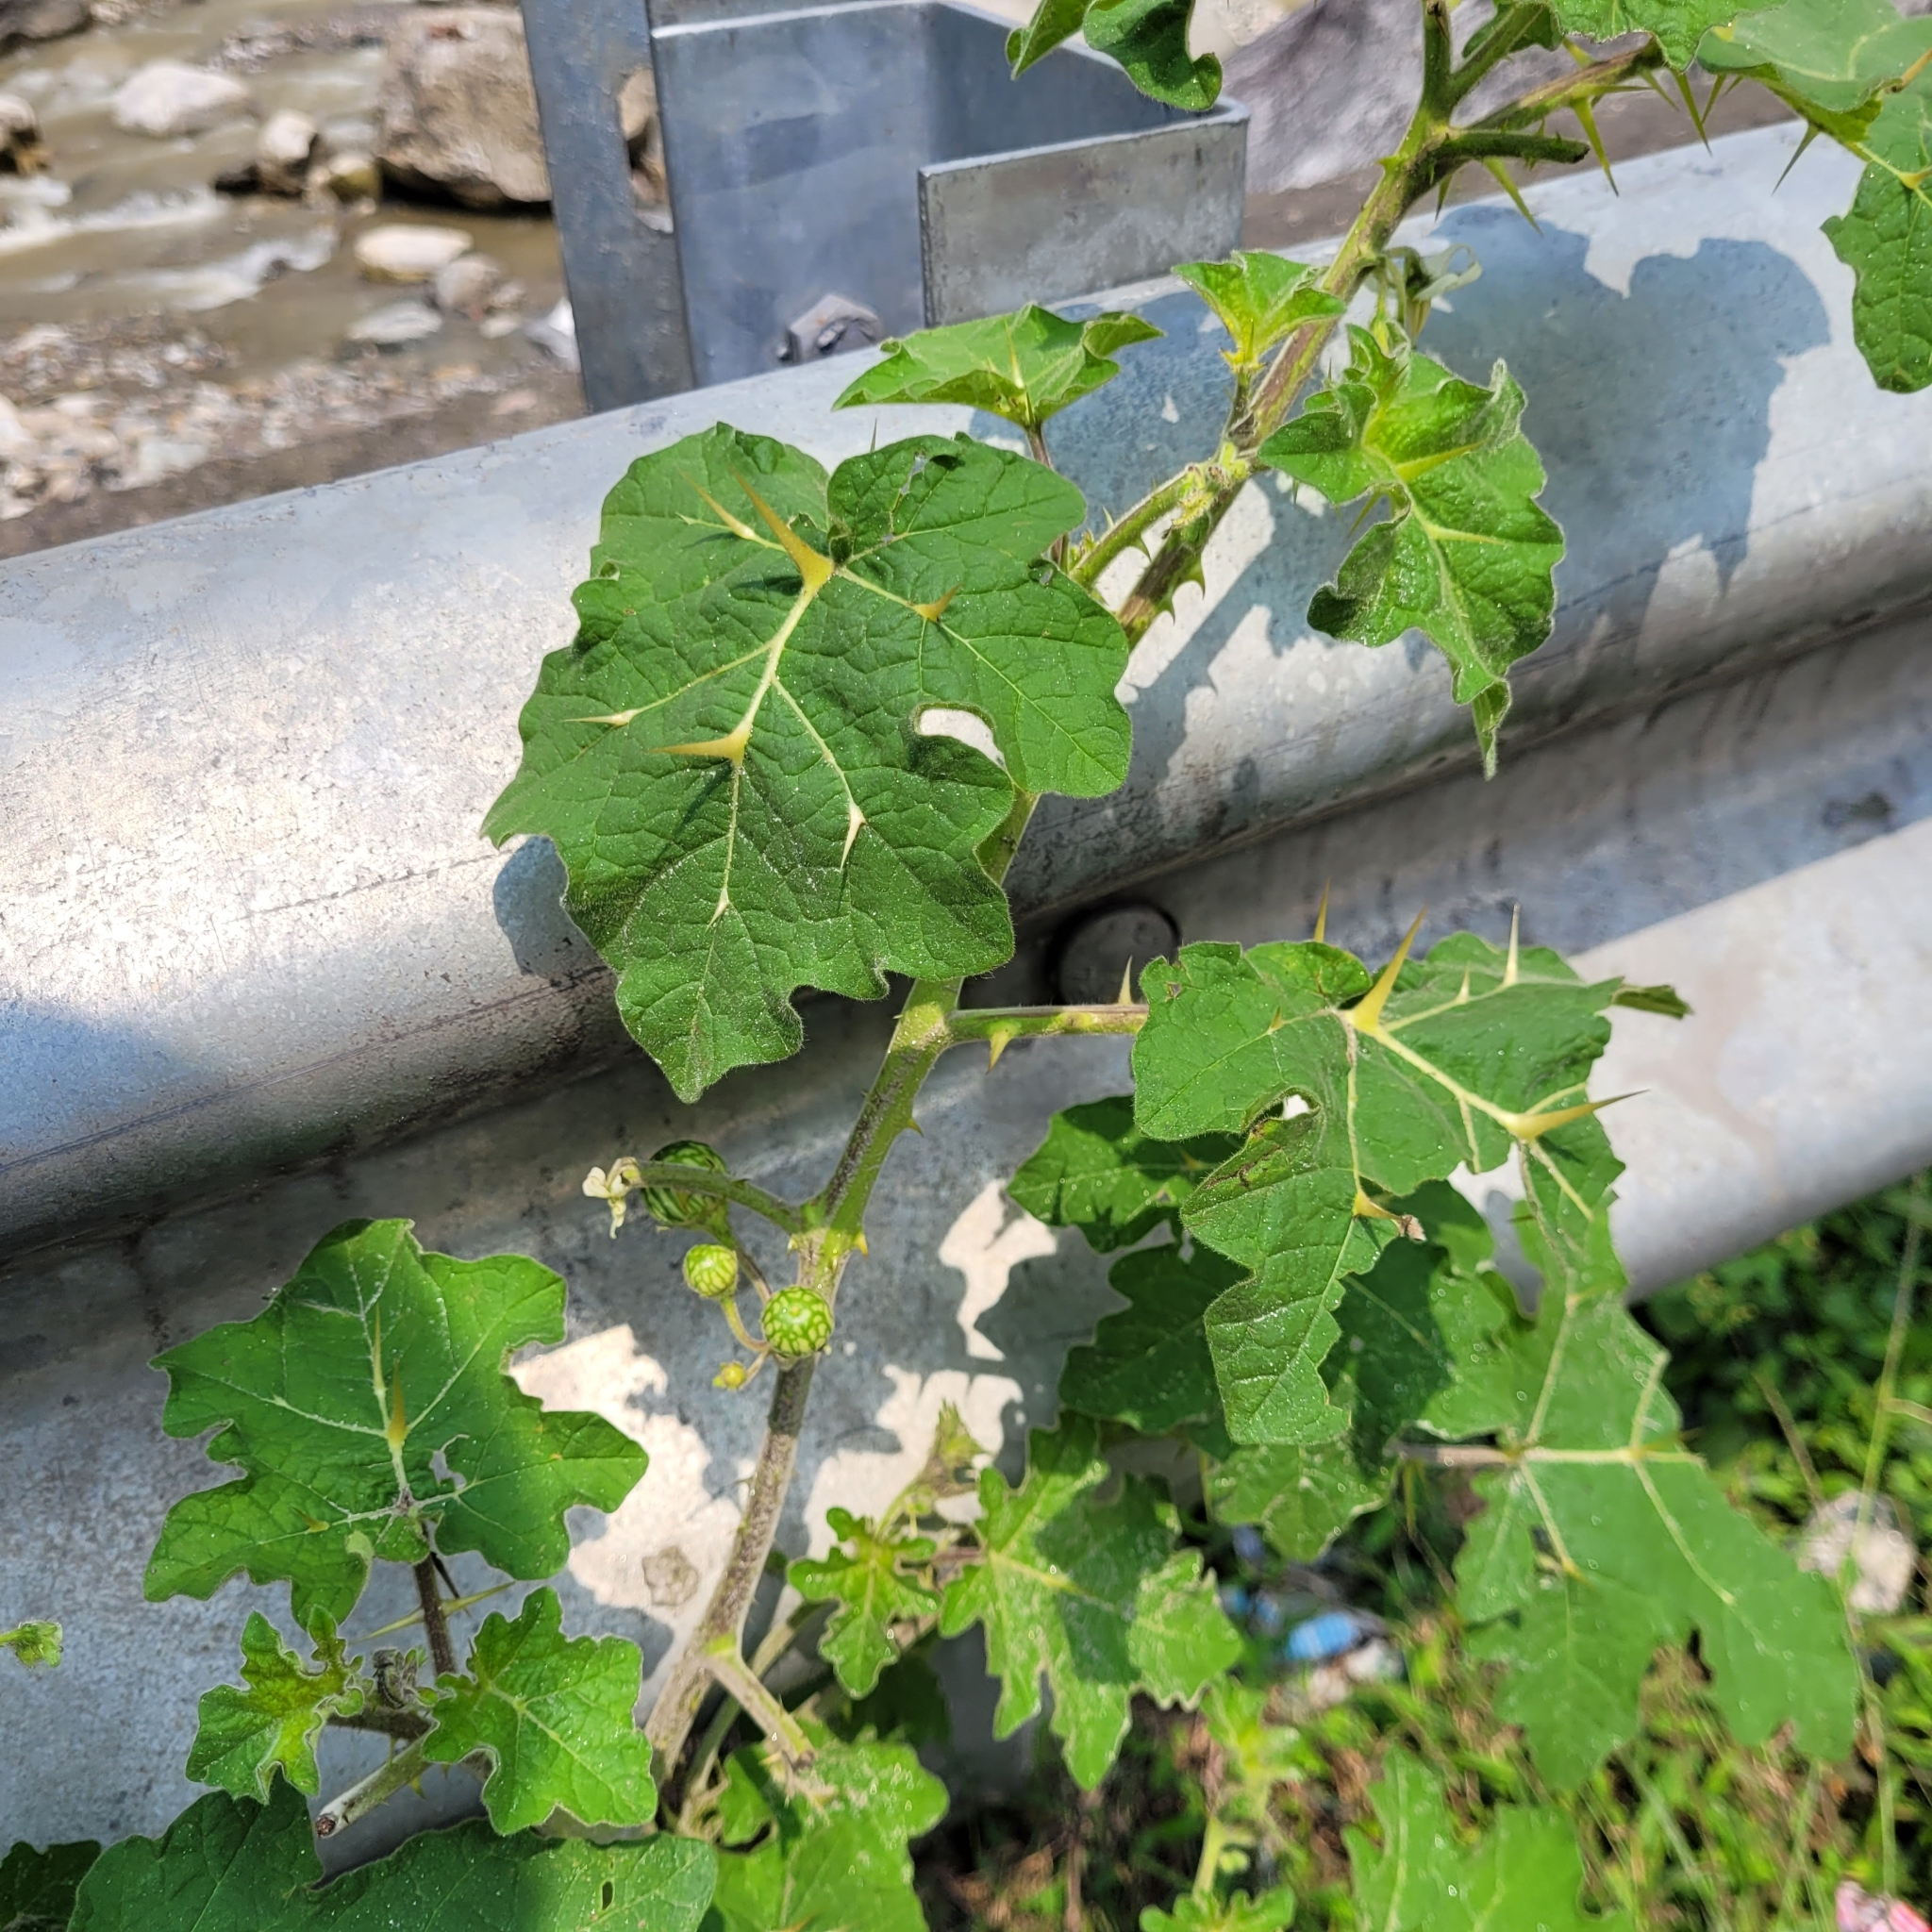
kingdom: Plantae
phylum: Tracheophyta
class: Magnoliopsida
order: Solanales
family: Solanaceae
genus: Solanum
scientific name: Solanum viarum
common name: Tropical soda apple
